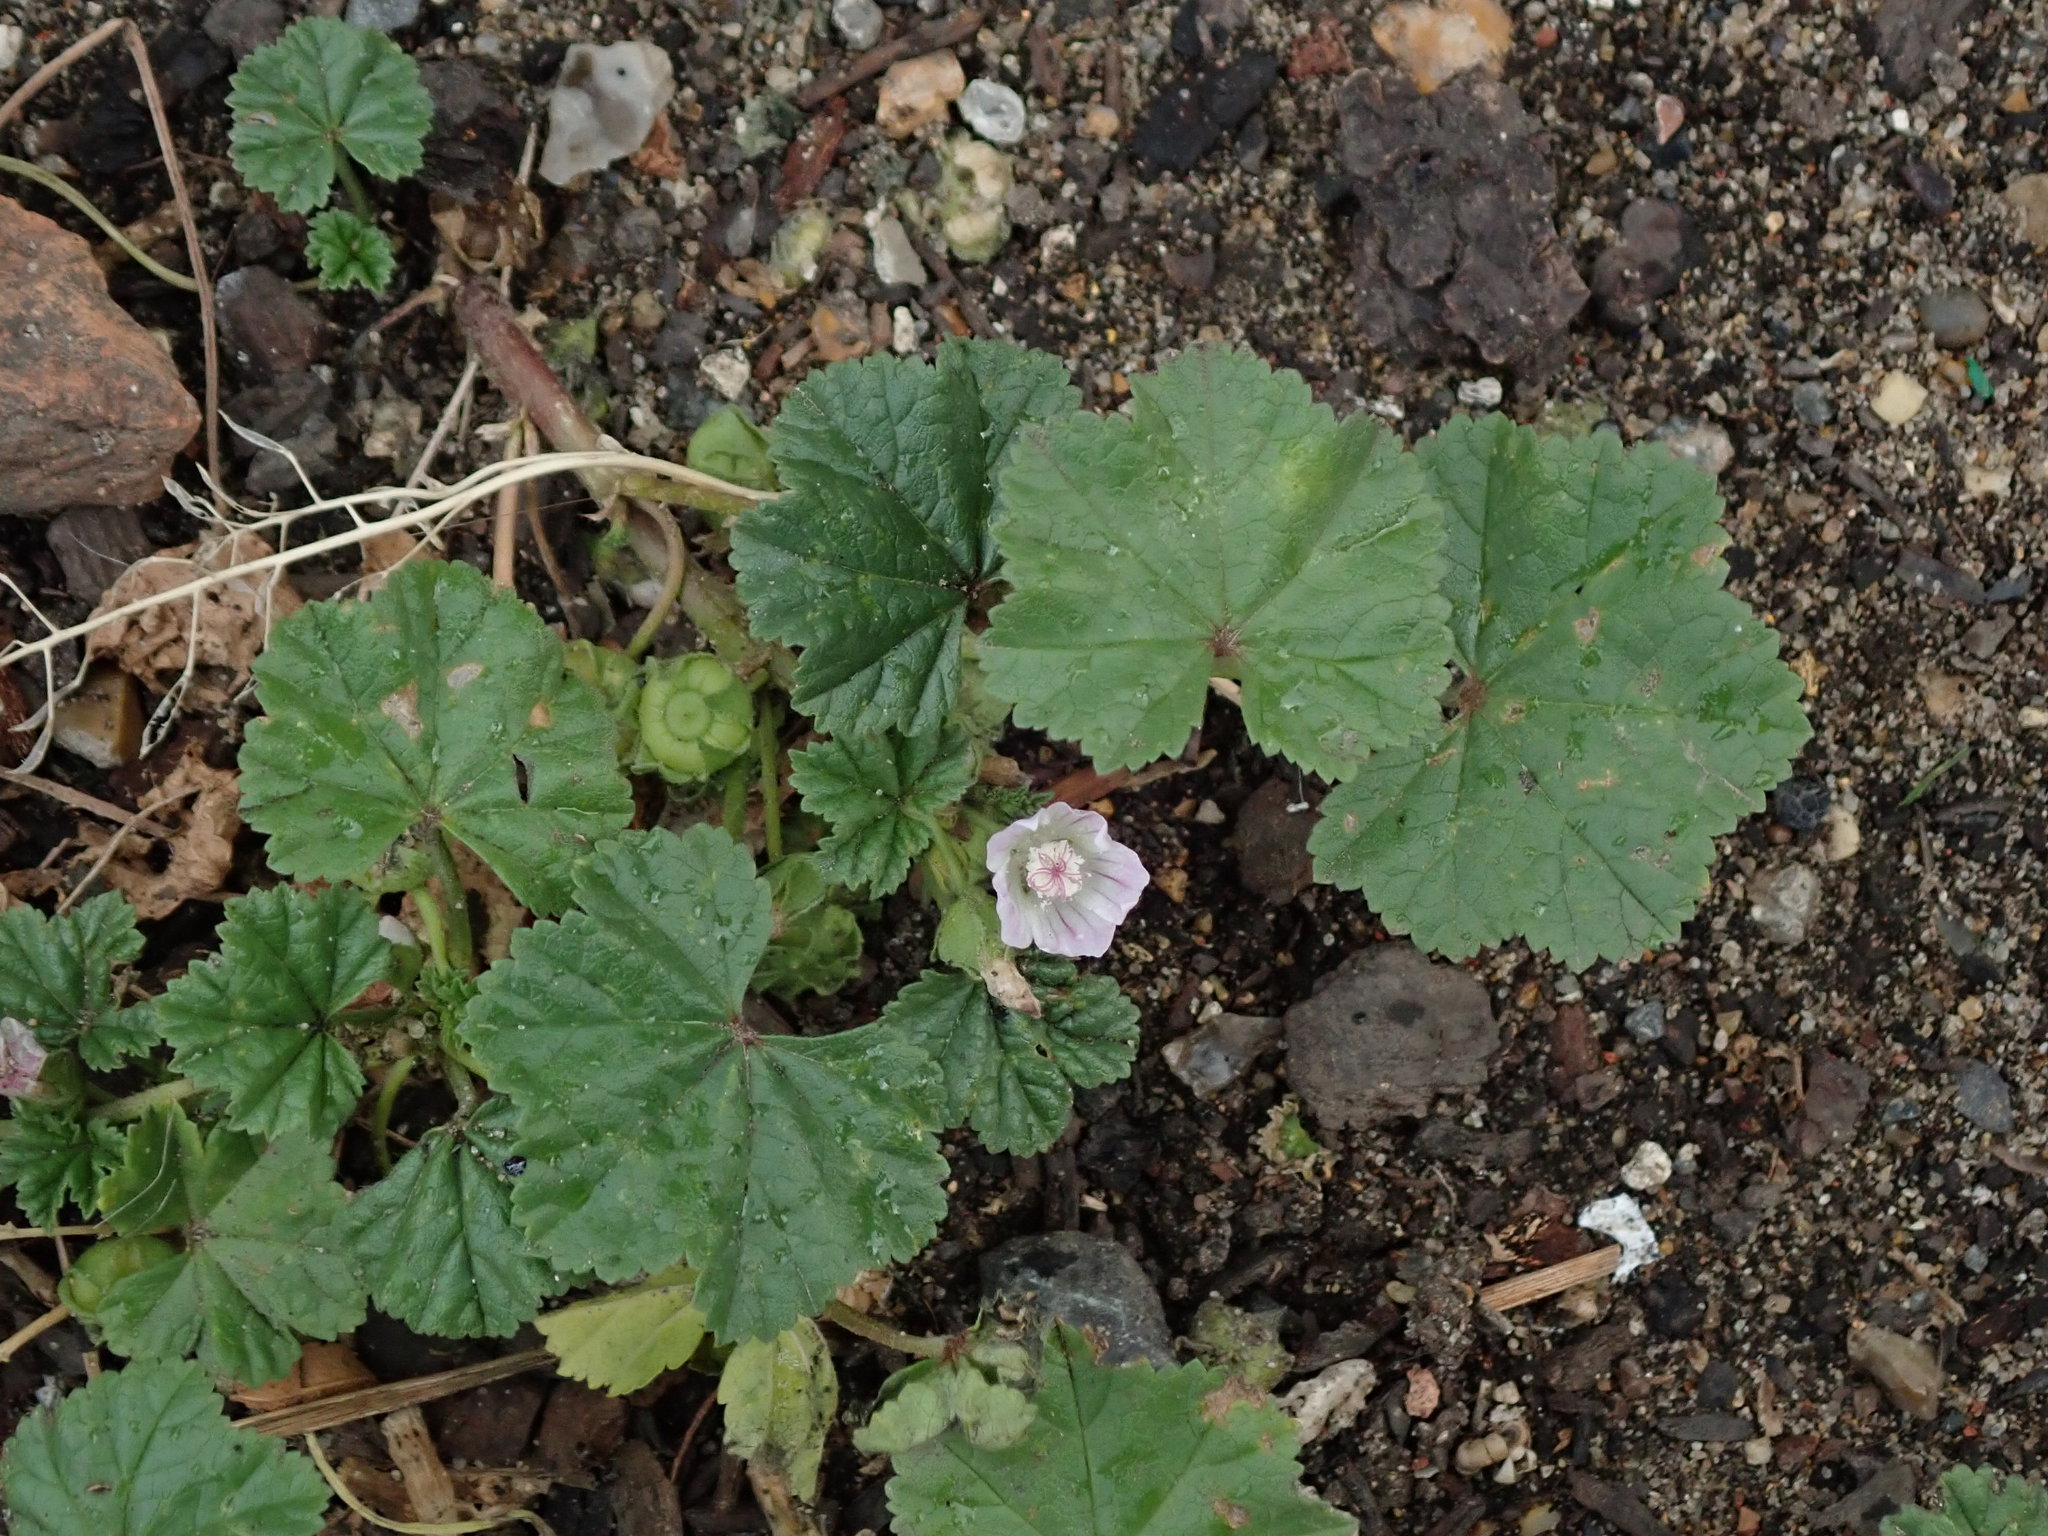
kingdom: Plantae
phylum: Tracheophyta
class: Magnoliopsida
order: Malvales
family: Malvaceae
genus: Malva
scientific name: Malva neglecta
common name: Common mallow
